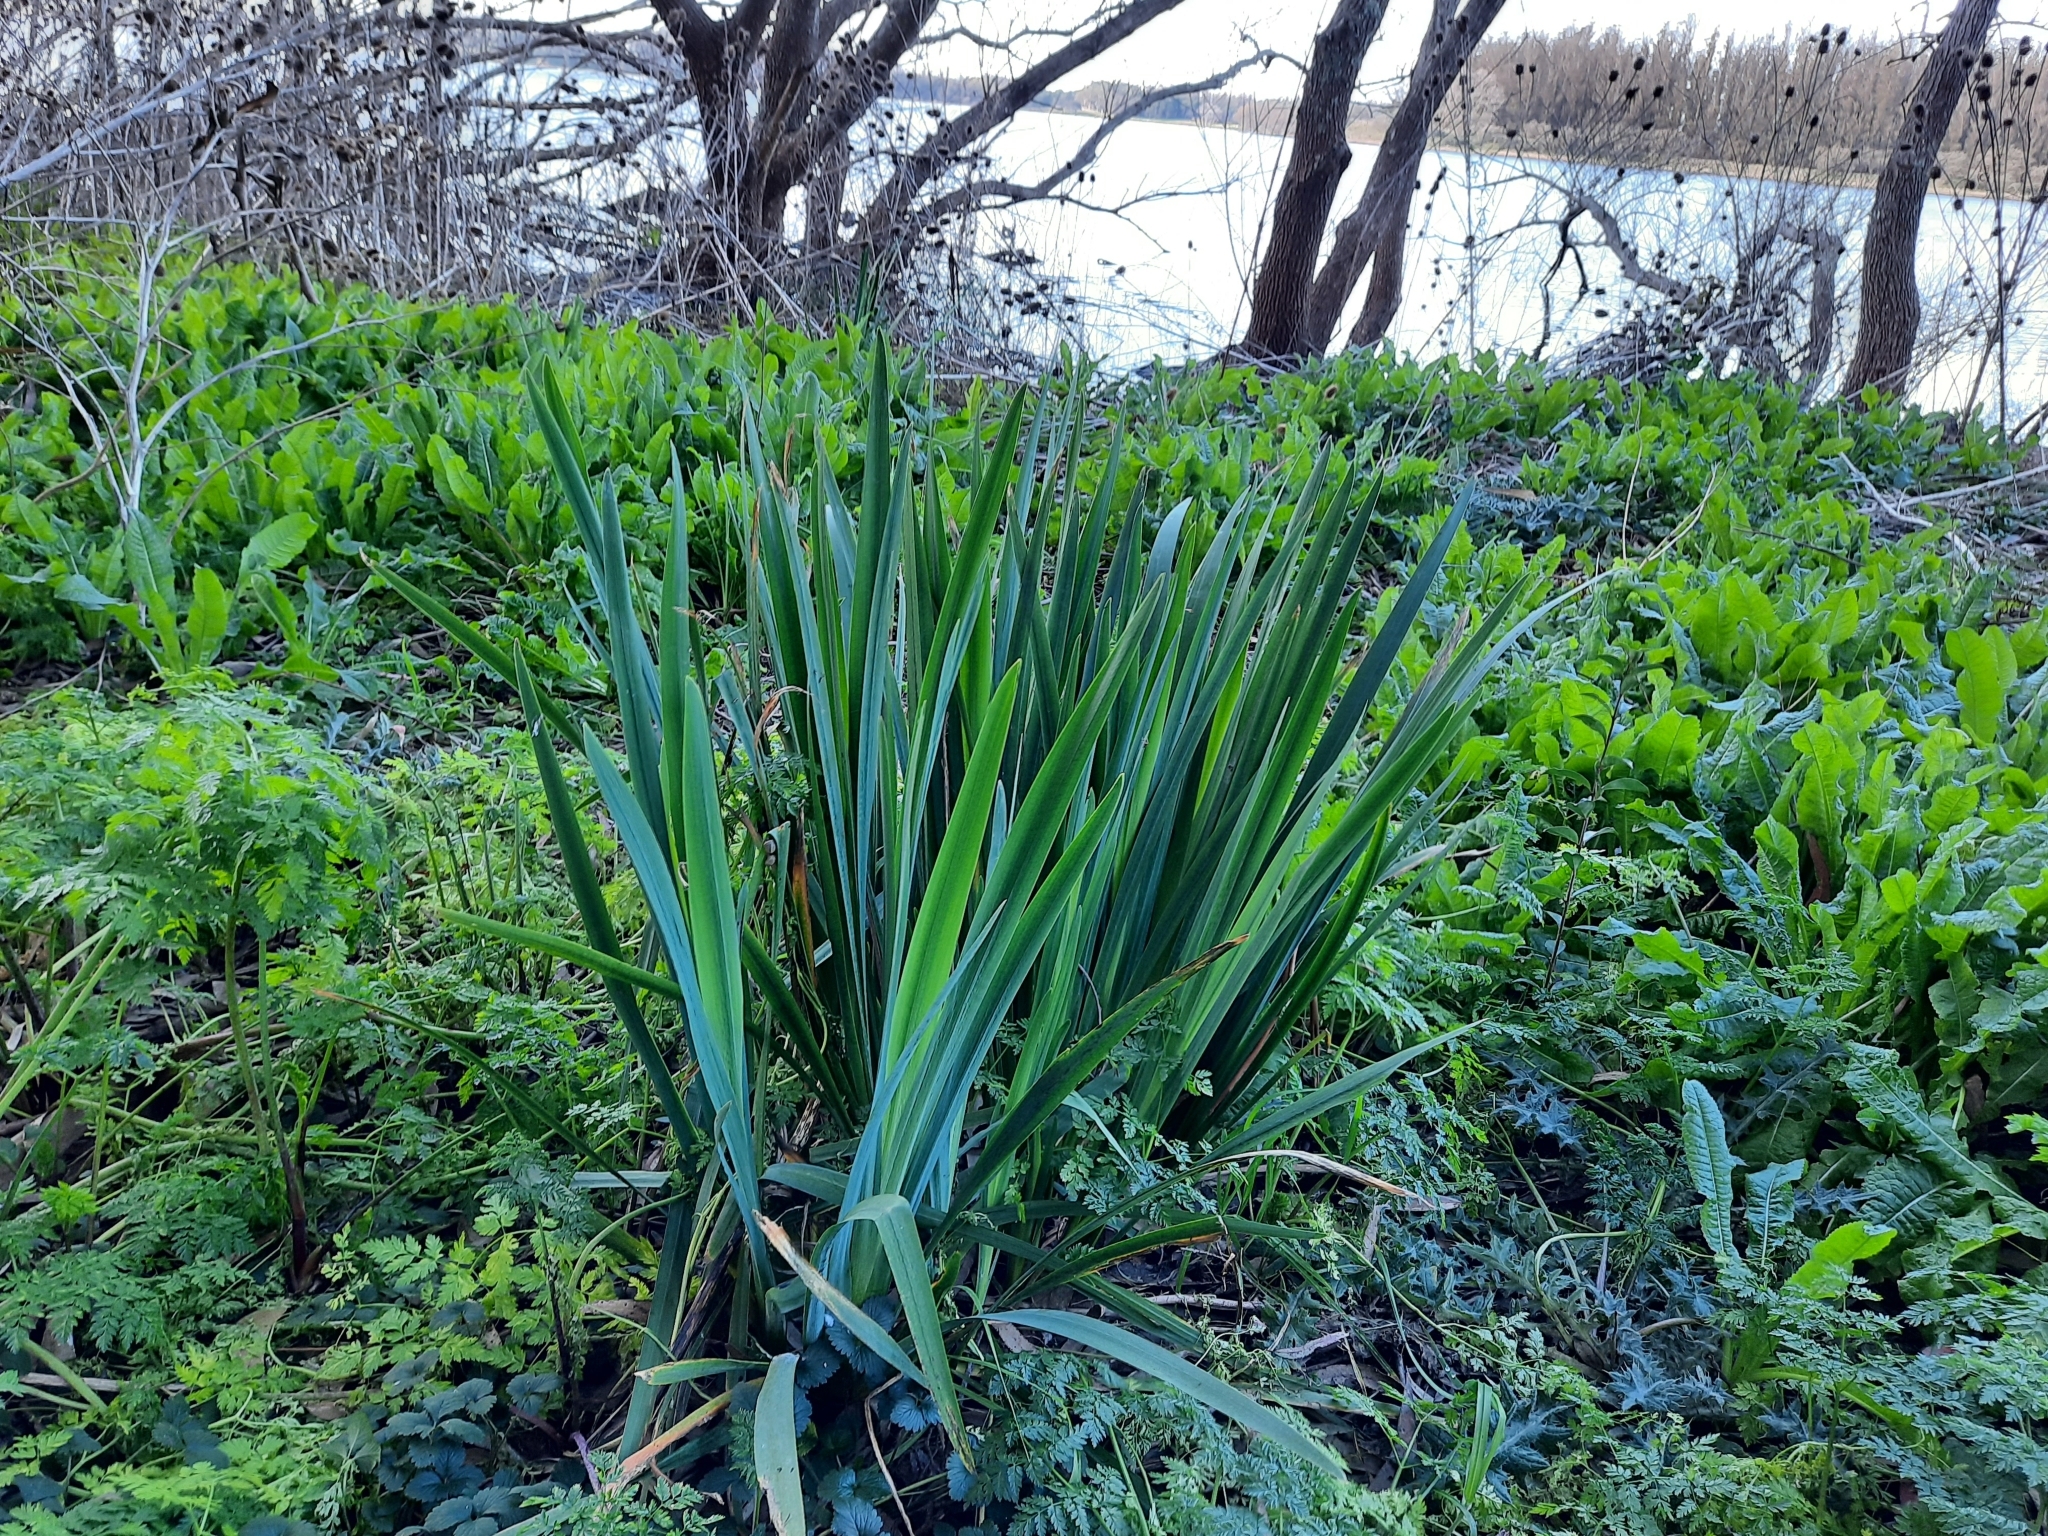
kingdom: Plantae
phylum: Tracheophyta
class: Liliopsida
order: Asparagales
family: Iridaceae
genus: Iris
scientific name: Iris pseudacorus
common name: Yellow flag
